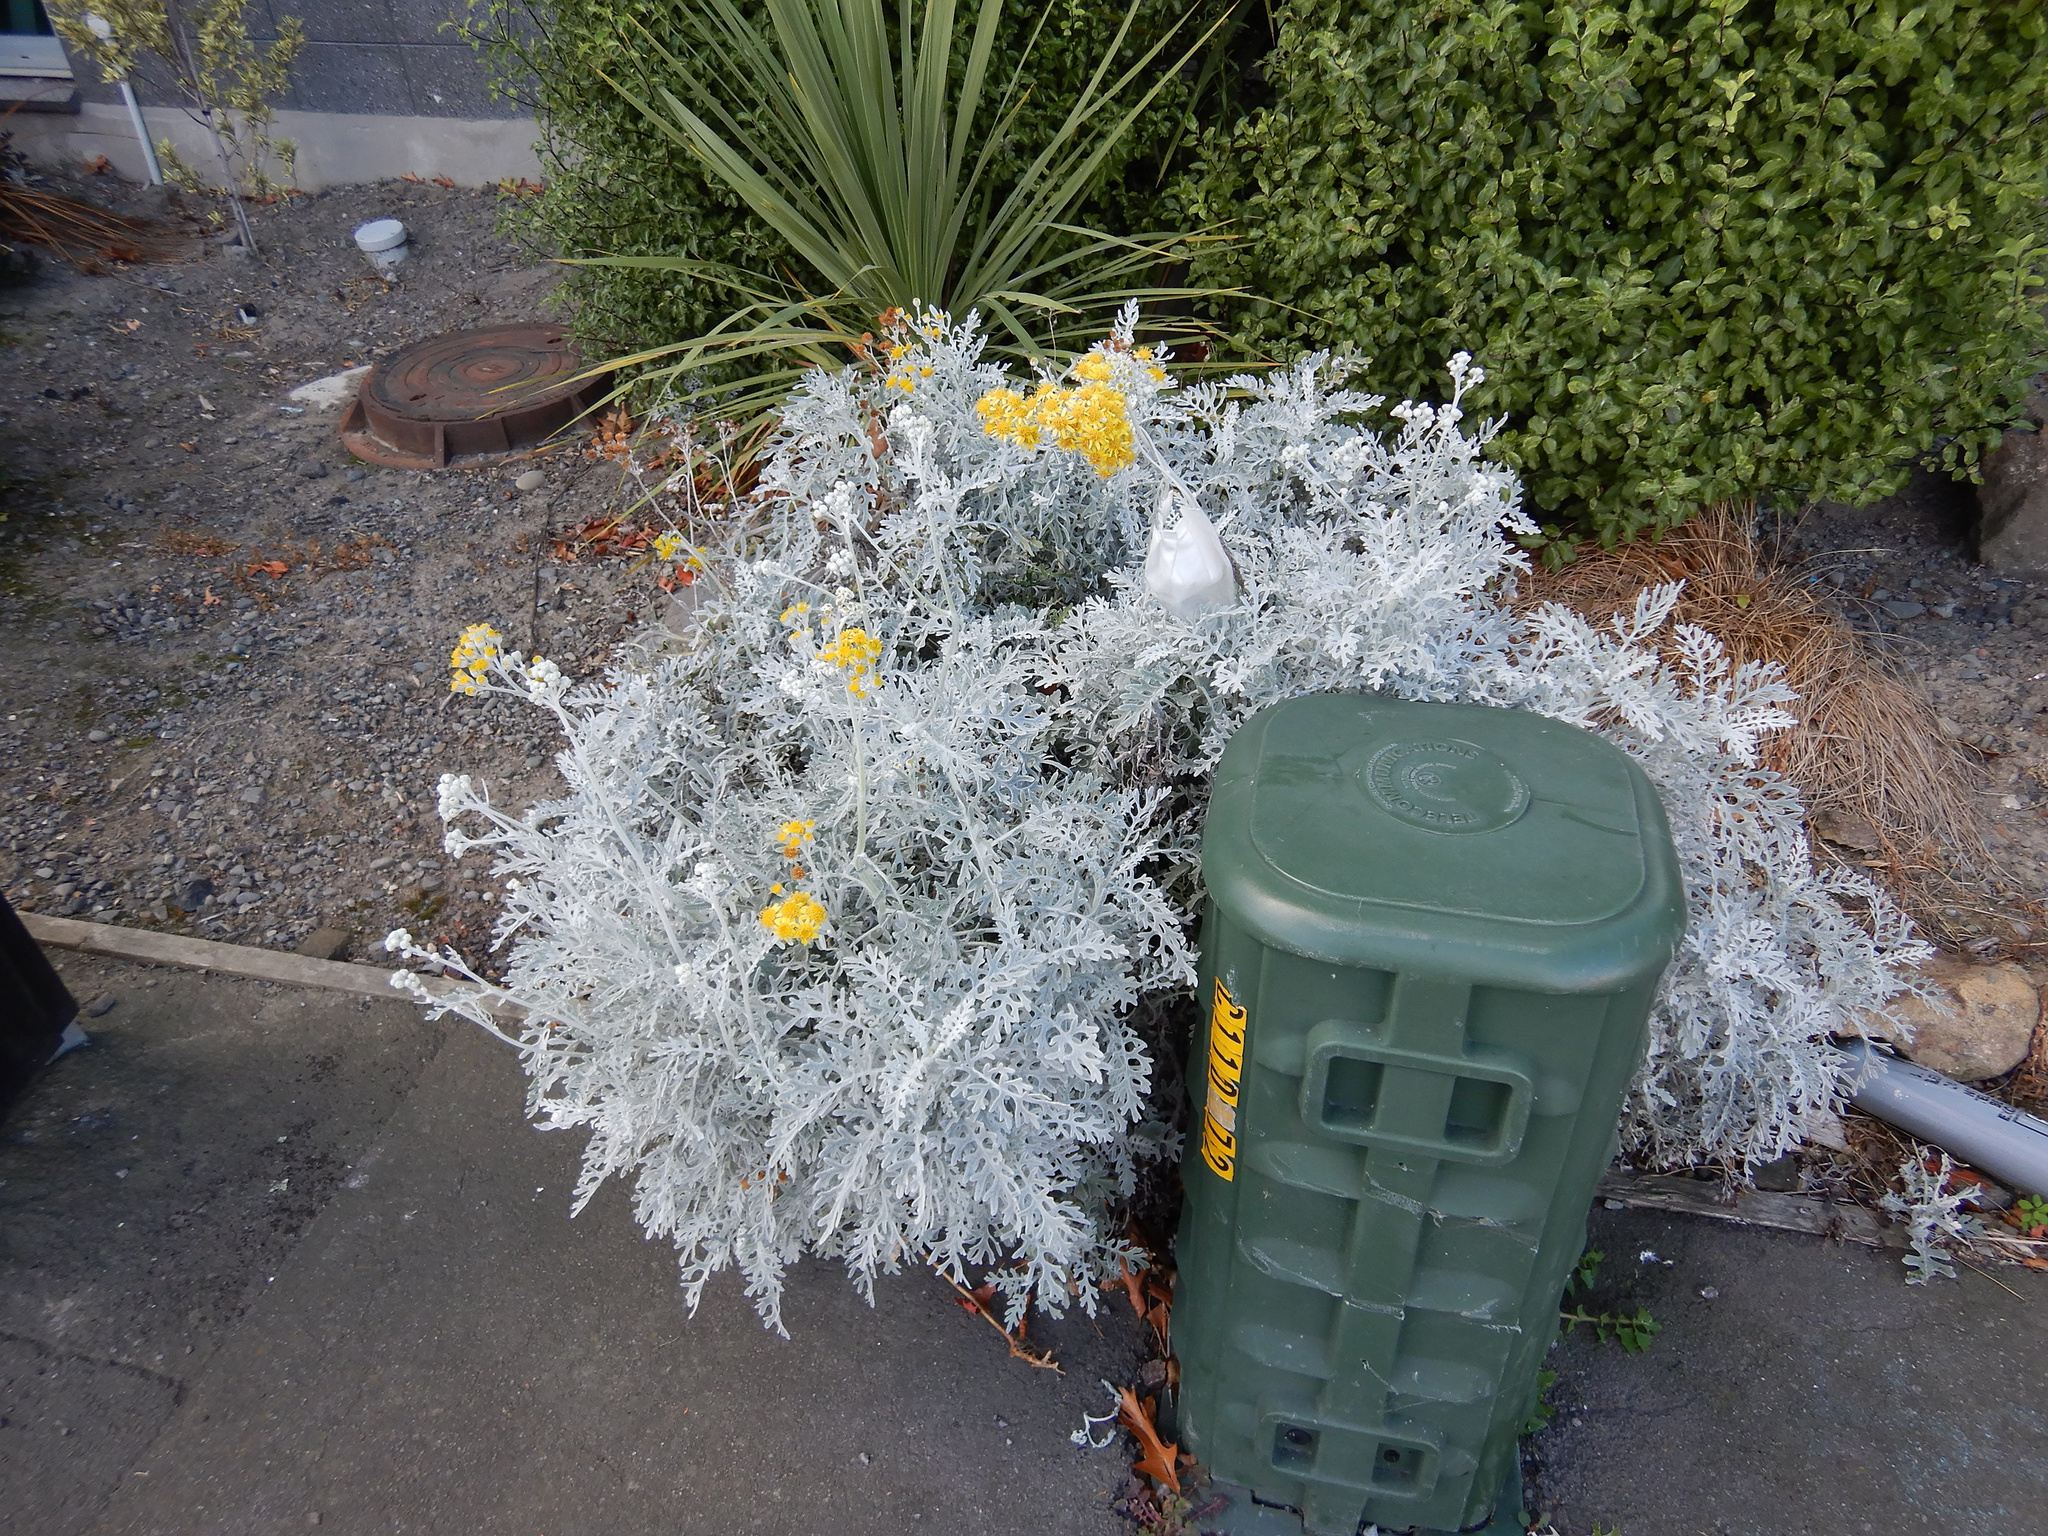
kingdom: Plantae
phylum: Tracheophyta
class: Magnoliopsida
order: Asterales
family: Asteraceae
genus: Jacobaea
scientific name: Jacobaea maritima
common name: Silver ragwort
